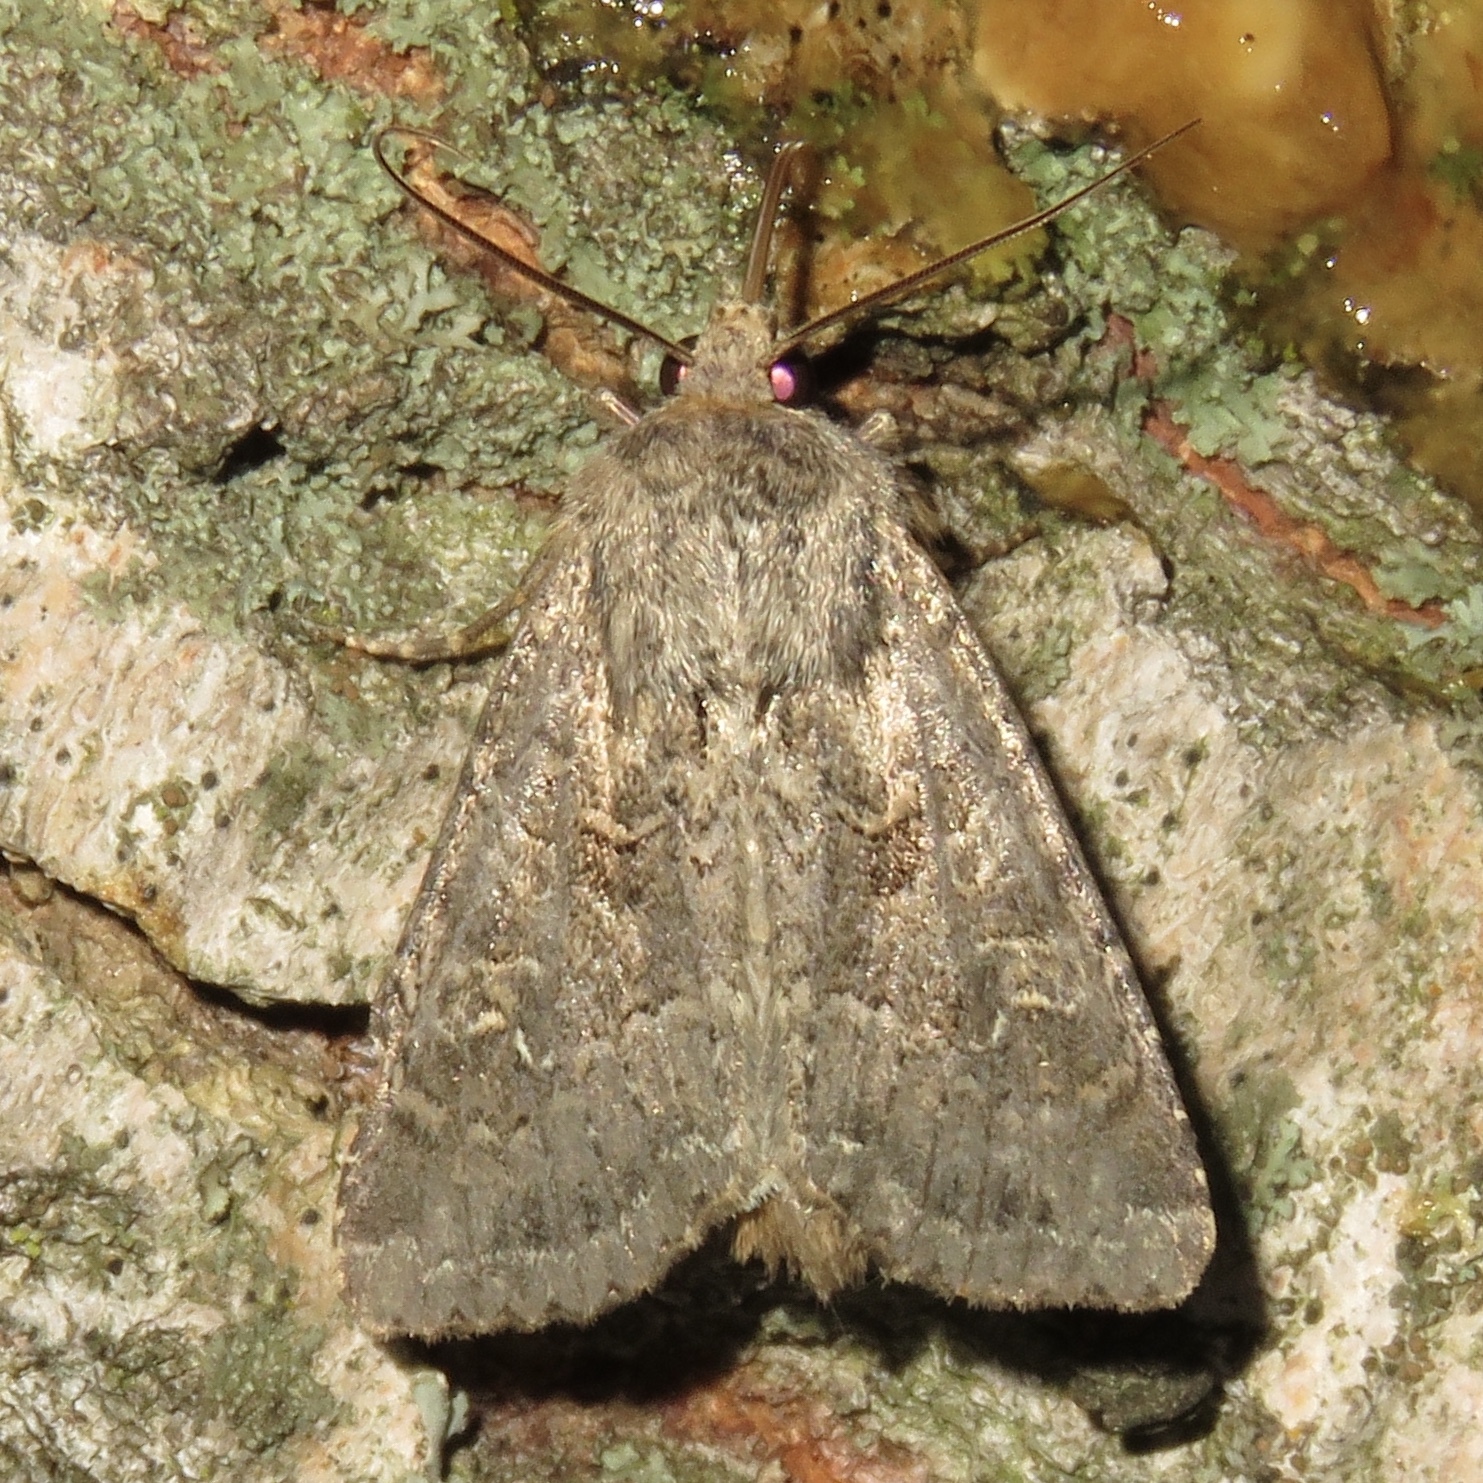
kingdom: Animalia
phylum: Arthropoda
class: Insecta
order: Lepidoptera
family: Noctuidae
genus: Apamea
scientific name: Apamea devastator
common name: Glassy cutworm
